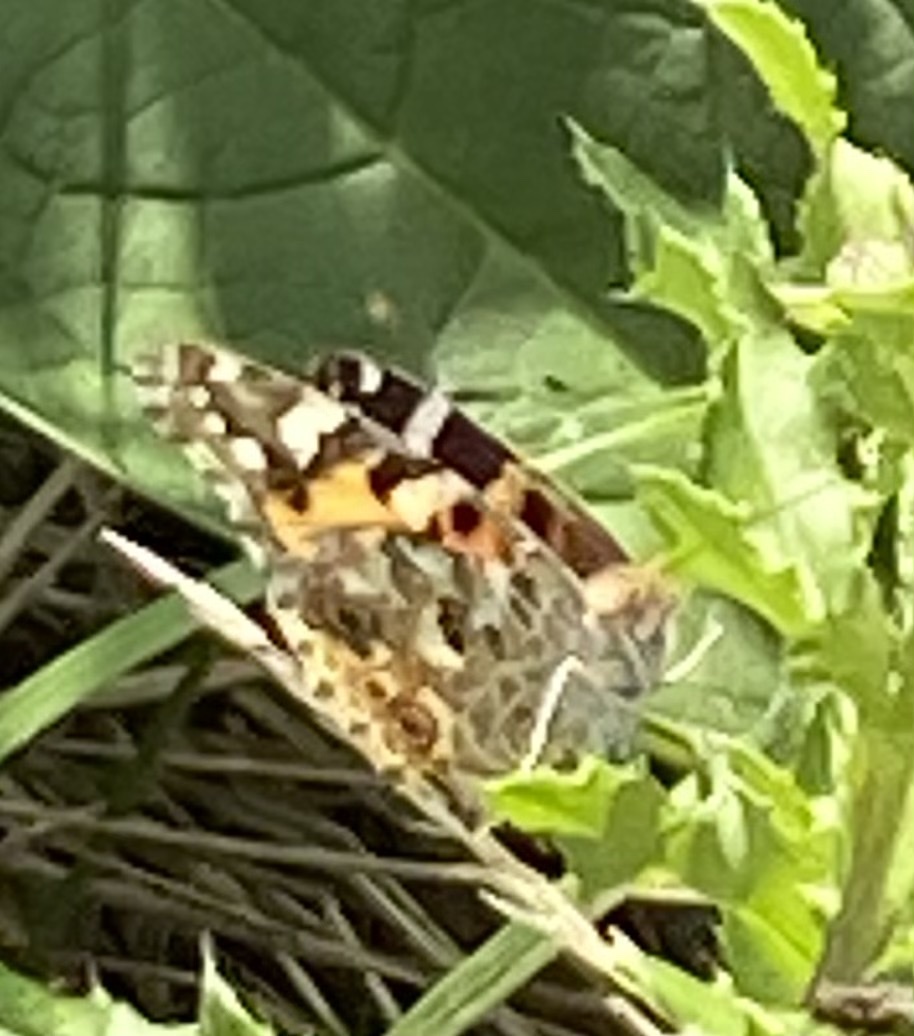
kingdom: Animalia
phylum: Arthropoda
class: Insecta
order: Lepidoptera
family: Nymphalidae
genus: Vanessa
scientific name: Vanessa cardui
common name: Painted lady
